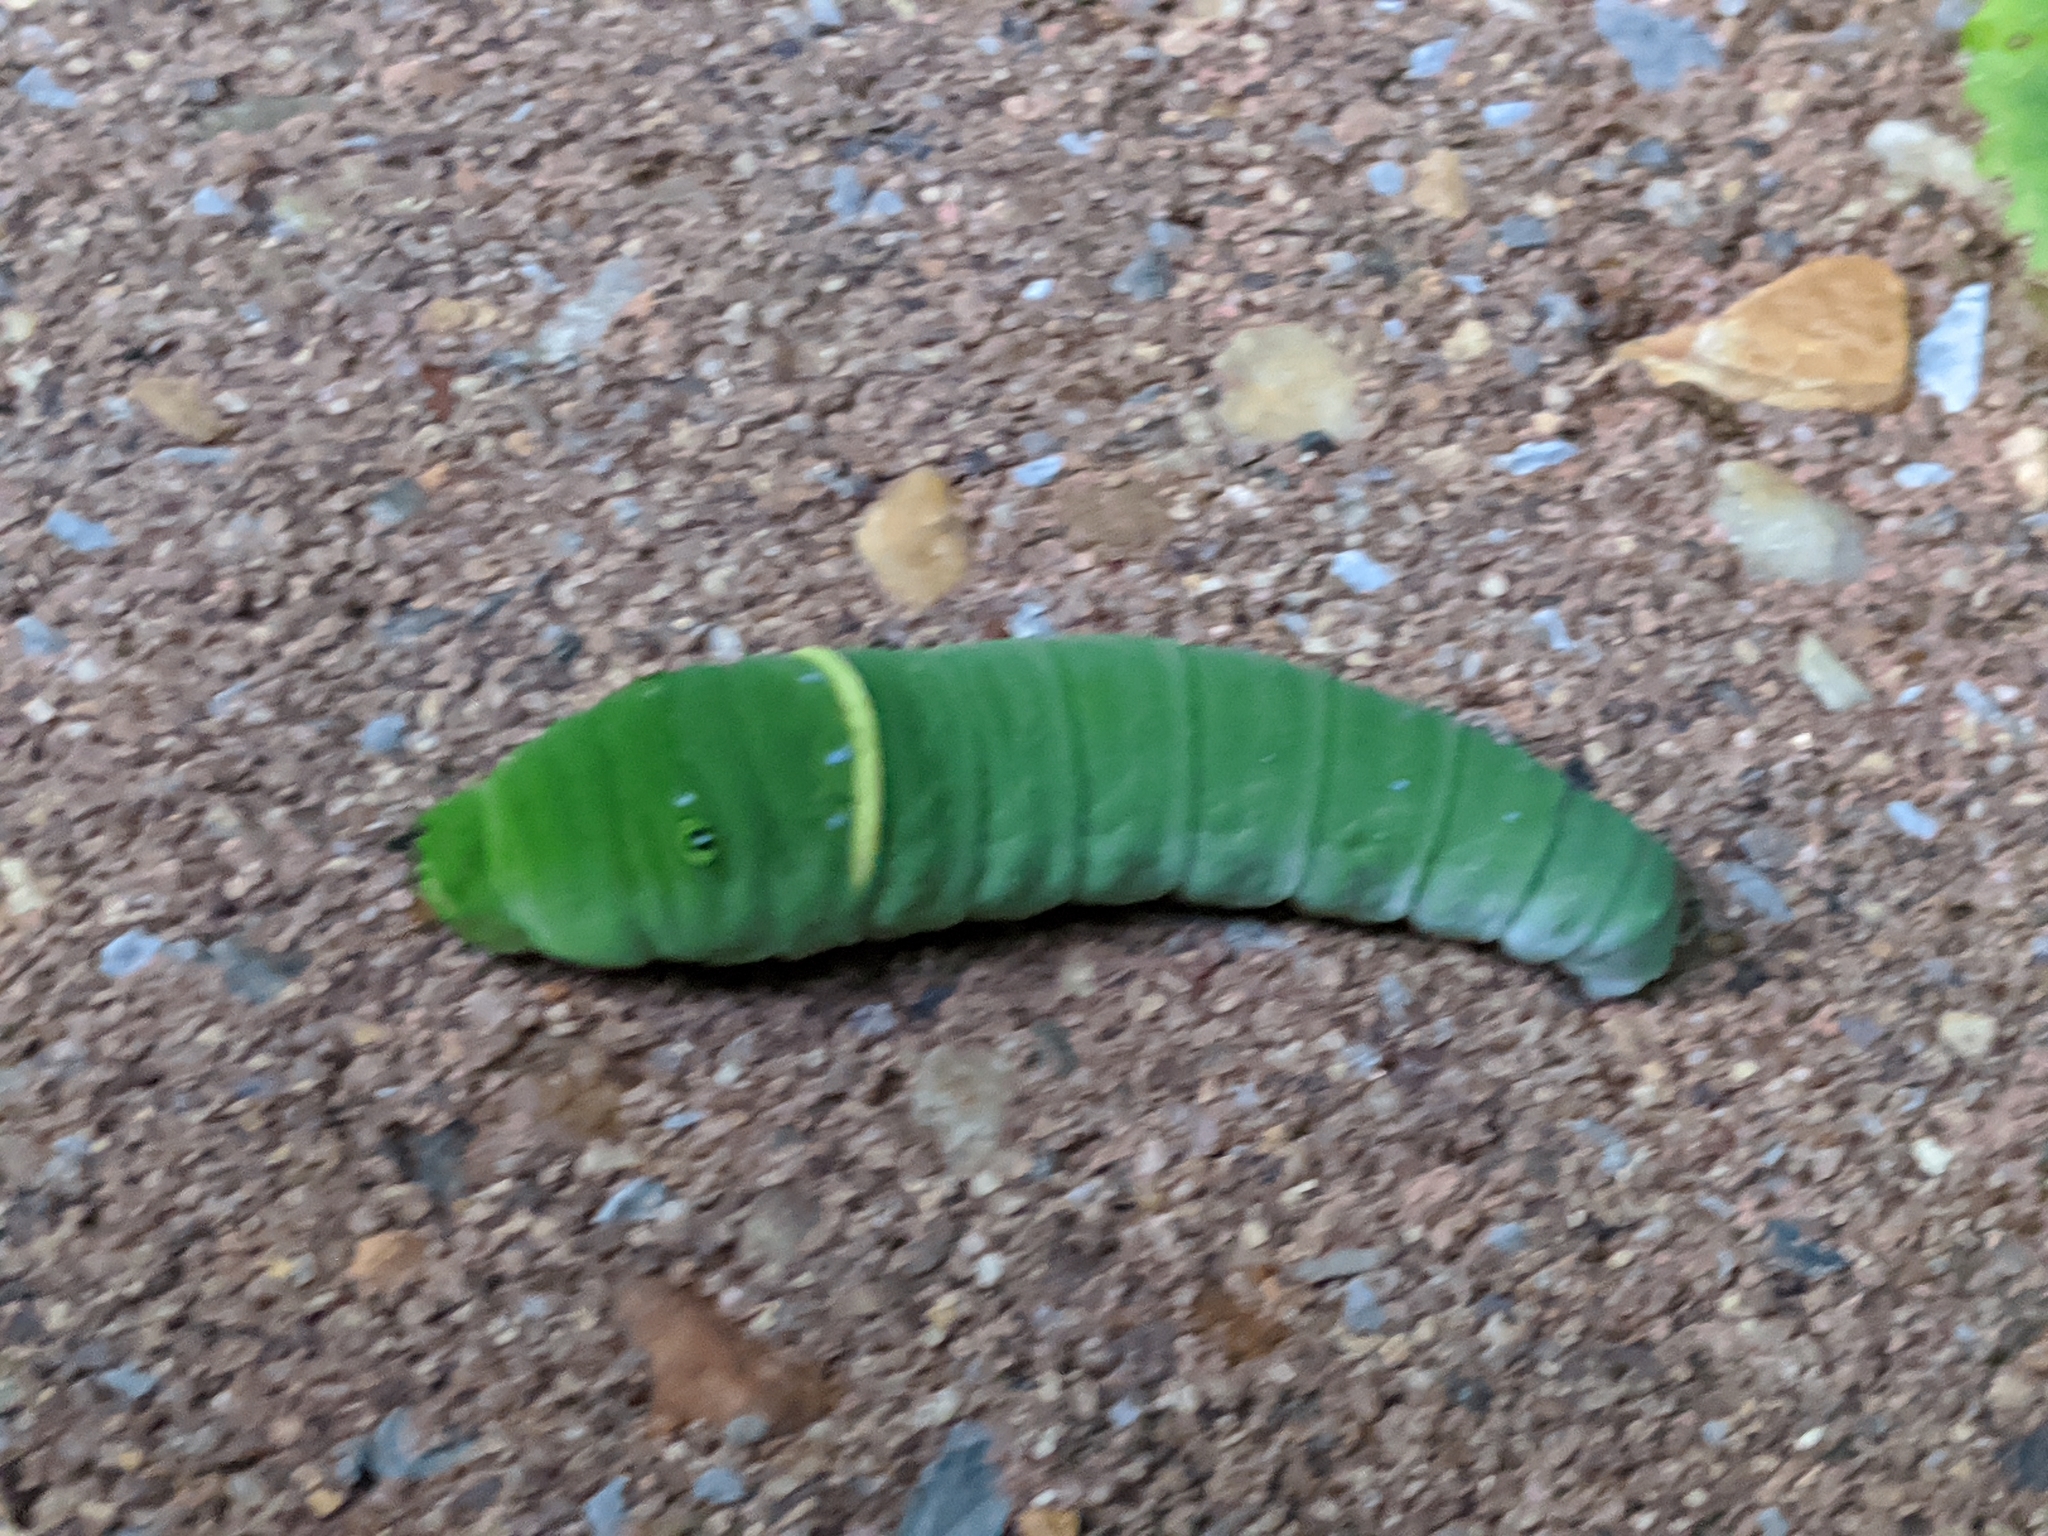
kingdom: Animalia
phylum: Arthropoda
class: Insecta
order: Lepidoptera
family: Papilionidae
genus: Papilio
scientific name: Papilio glaucus
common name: Tiger swallowtail
